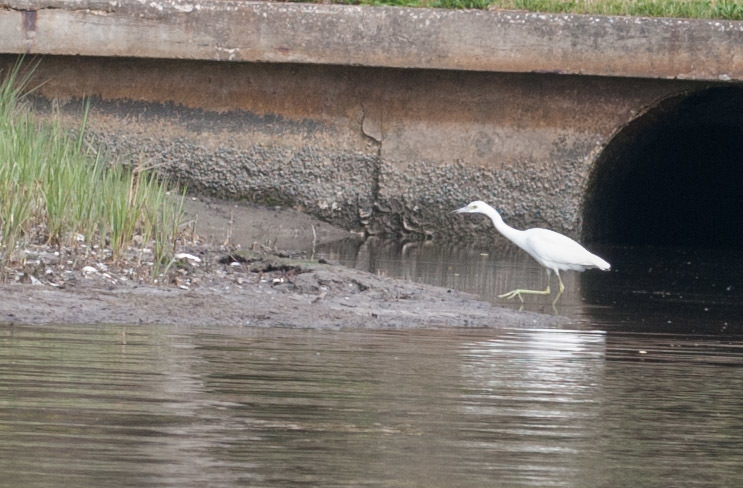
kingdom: Animalia
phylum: Chordata
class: Aves
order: Pelecaniformes
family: Ardeidae
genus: Egretta
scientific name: Egretta caerulea
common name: Little blue heron
